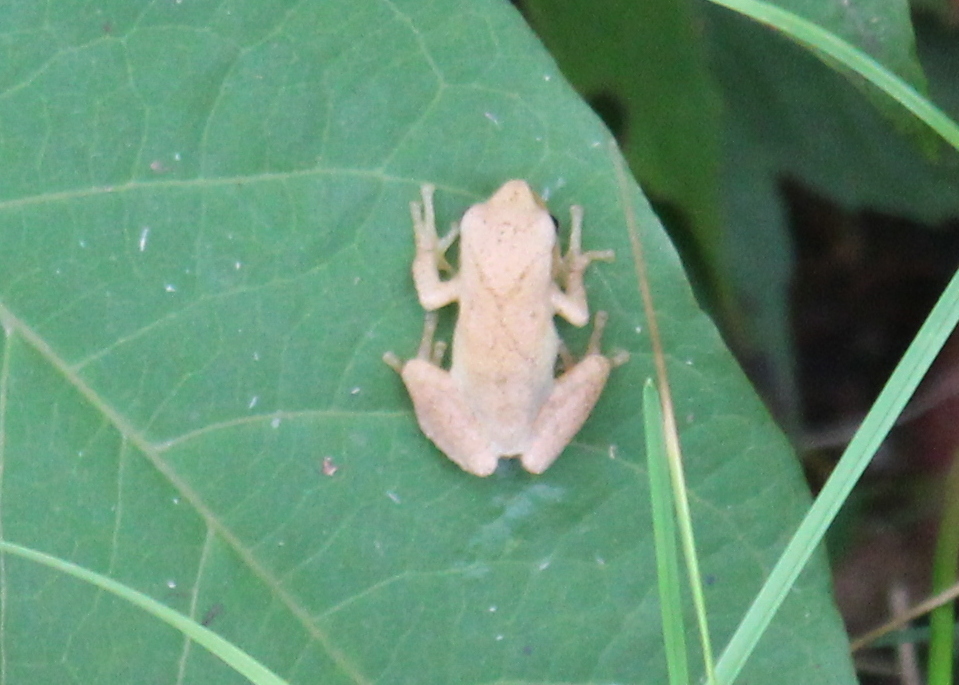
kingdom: Animalia
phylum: Chordata
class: Amphibia
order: Anura
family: Hylidae
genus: Pseudacris
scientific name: Pseudacris crucifer
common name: Spring peeper
